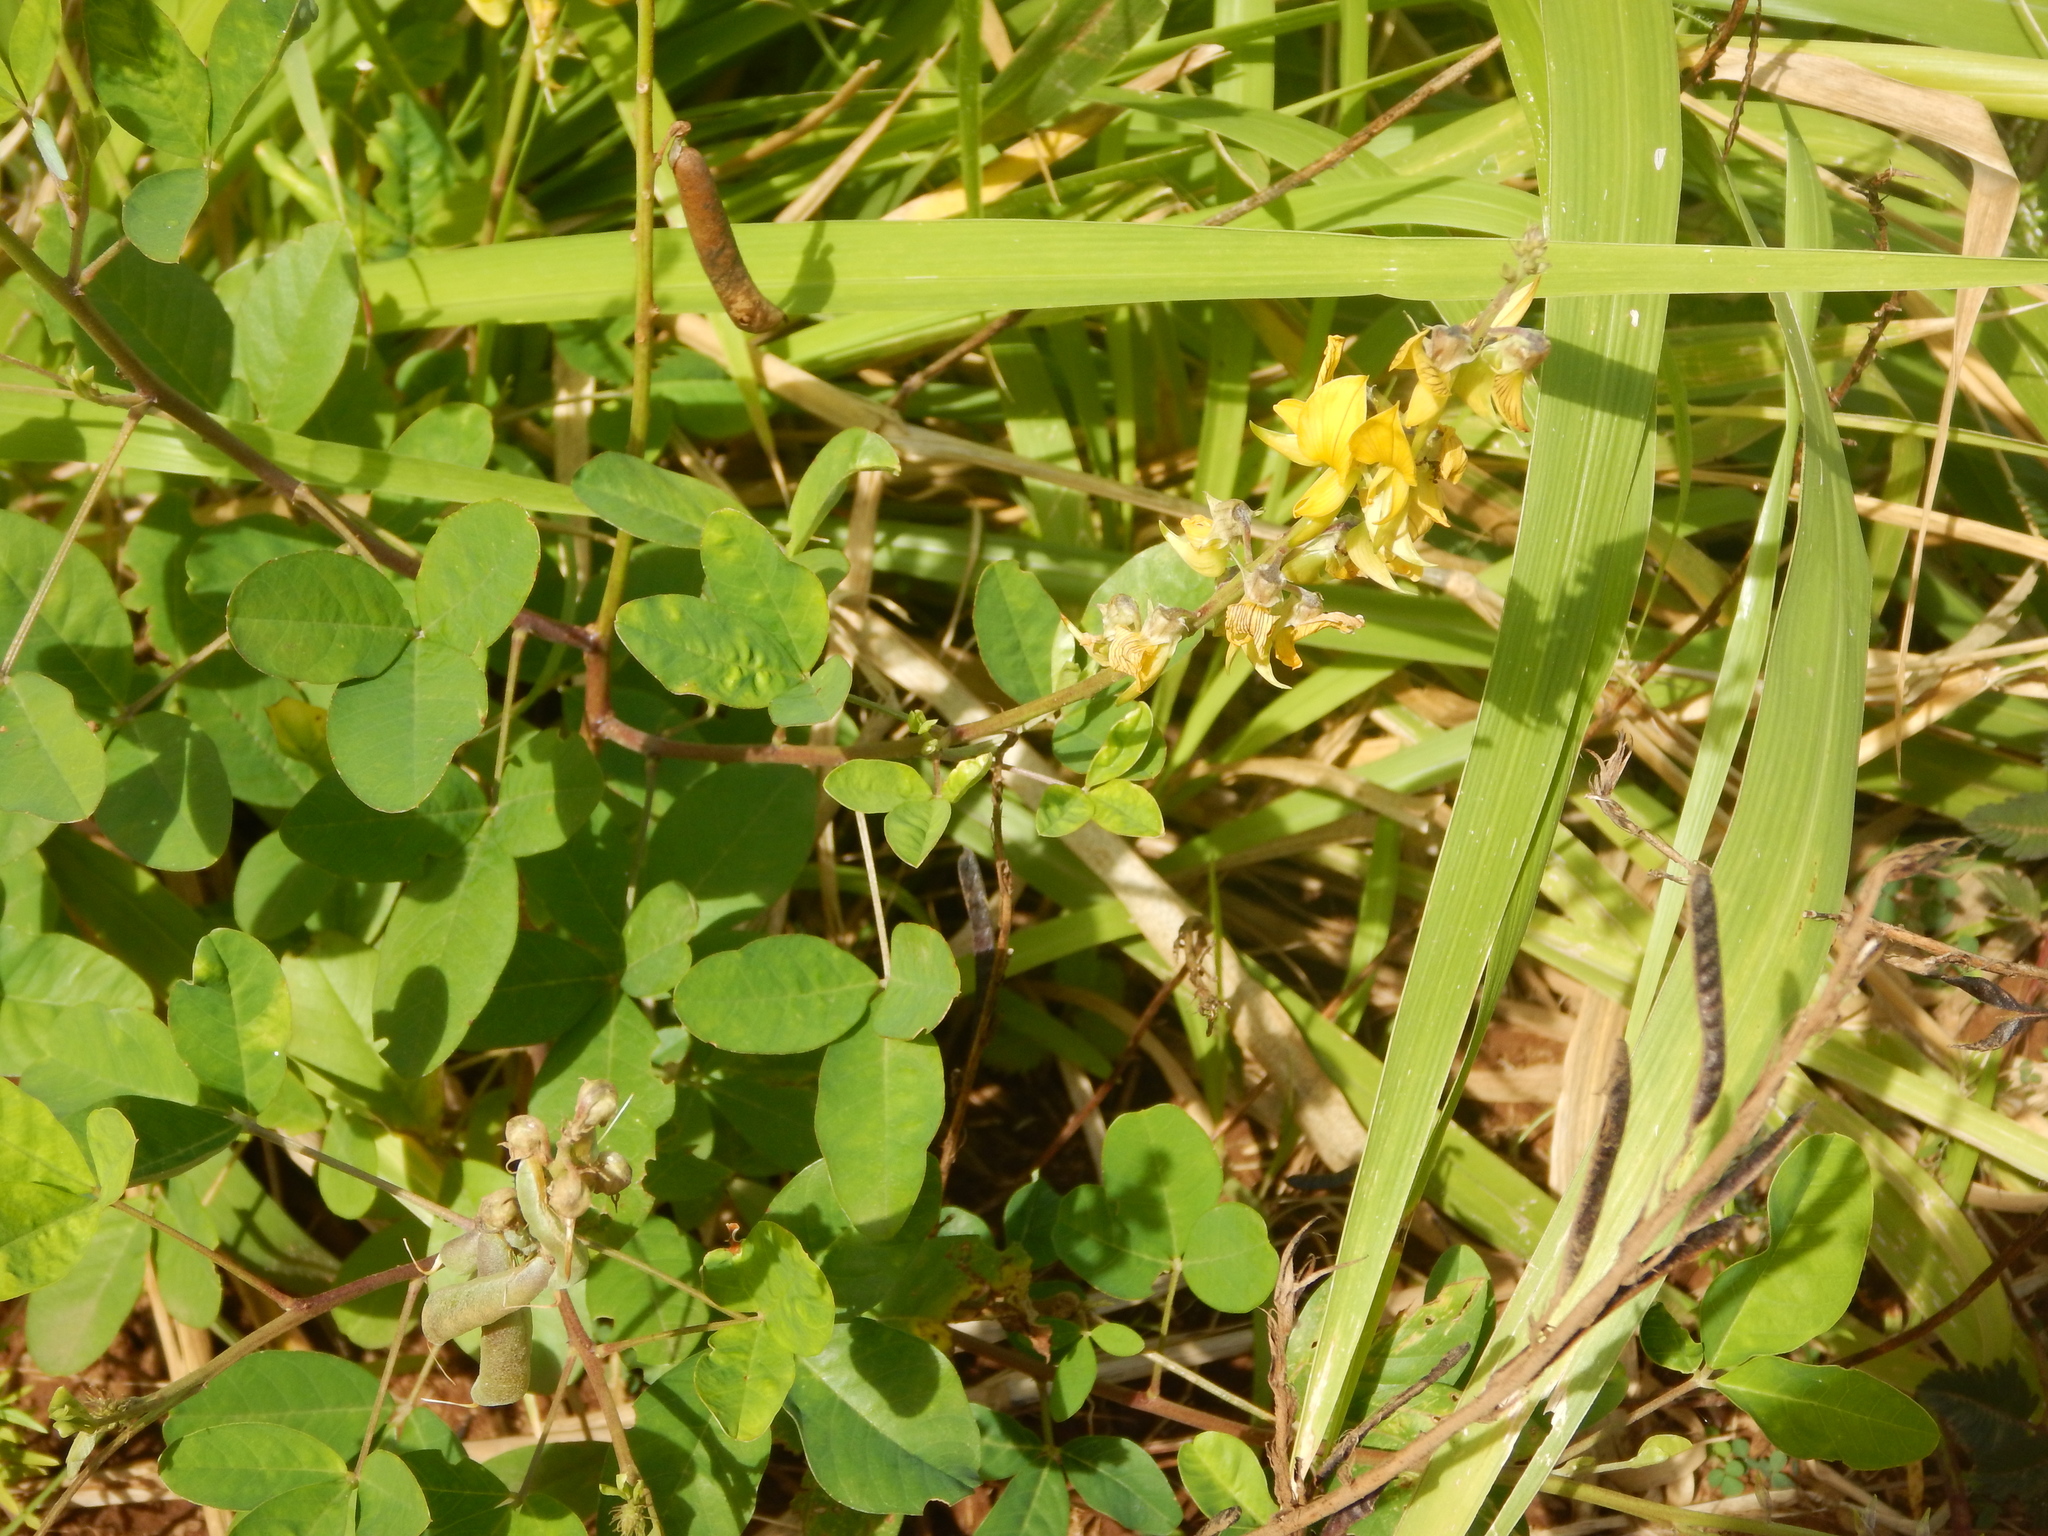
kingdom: Plantae
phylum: Tracheophyta
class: Magnoliopsida
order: Fabales
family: Fabaceae
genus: Crotalaria
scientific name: Crotalaria pallida
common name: Smooth rattlebox
